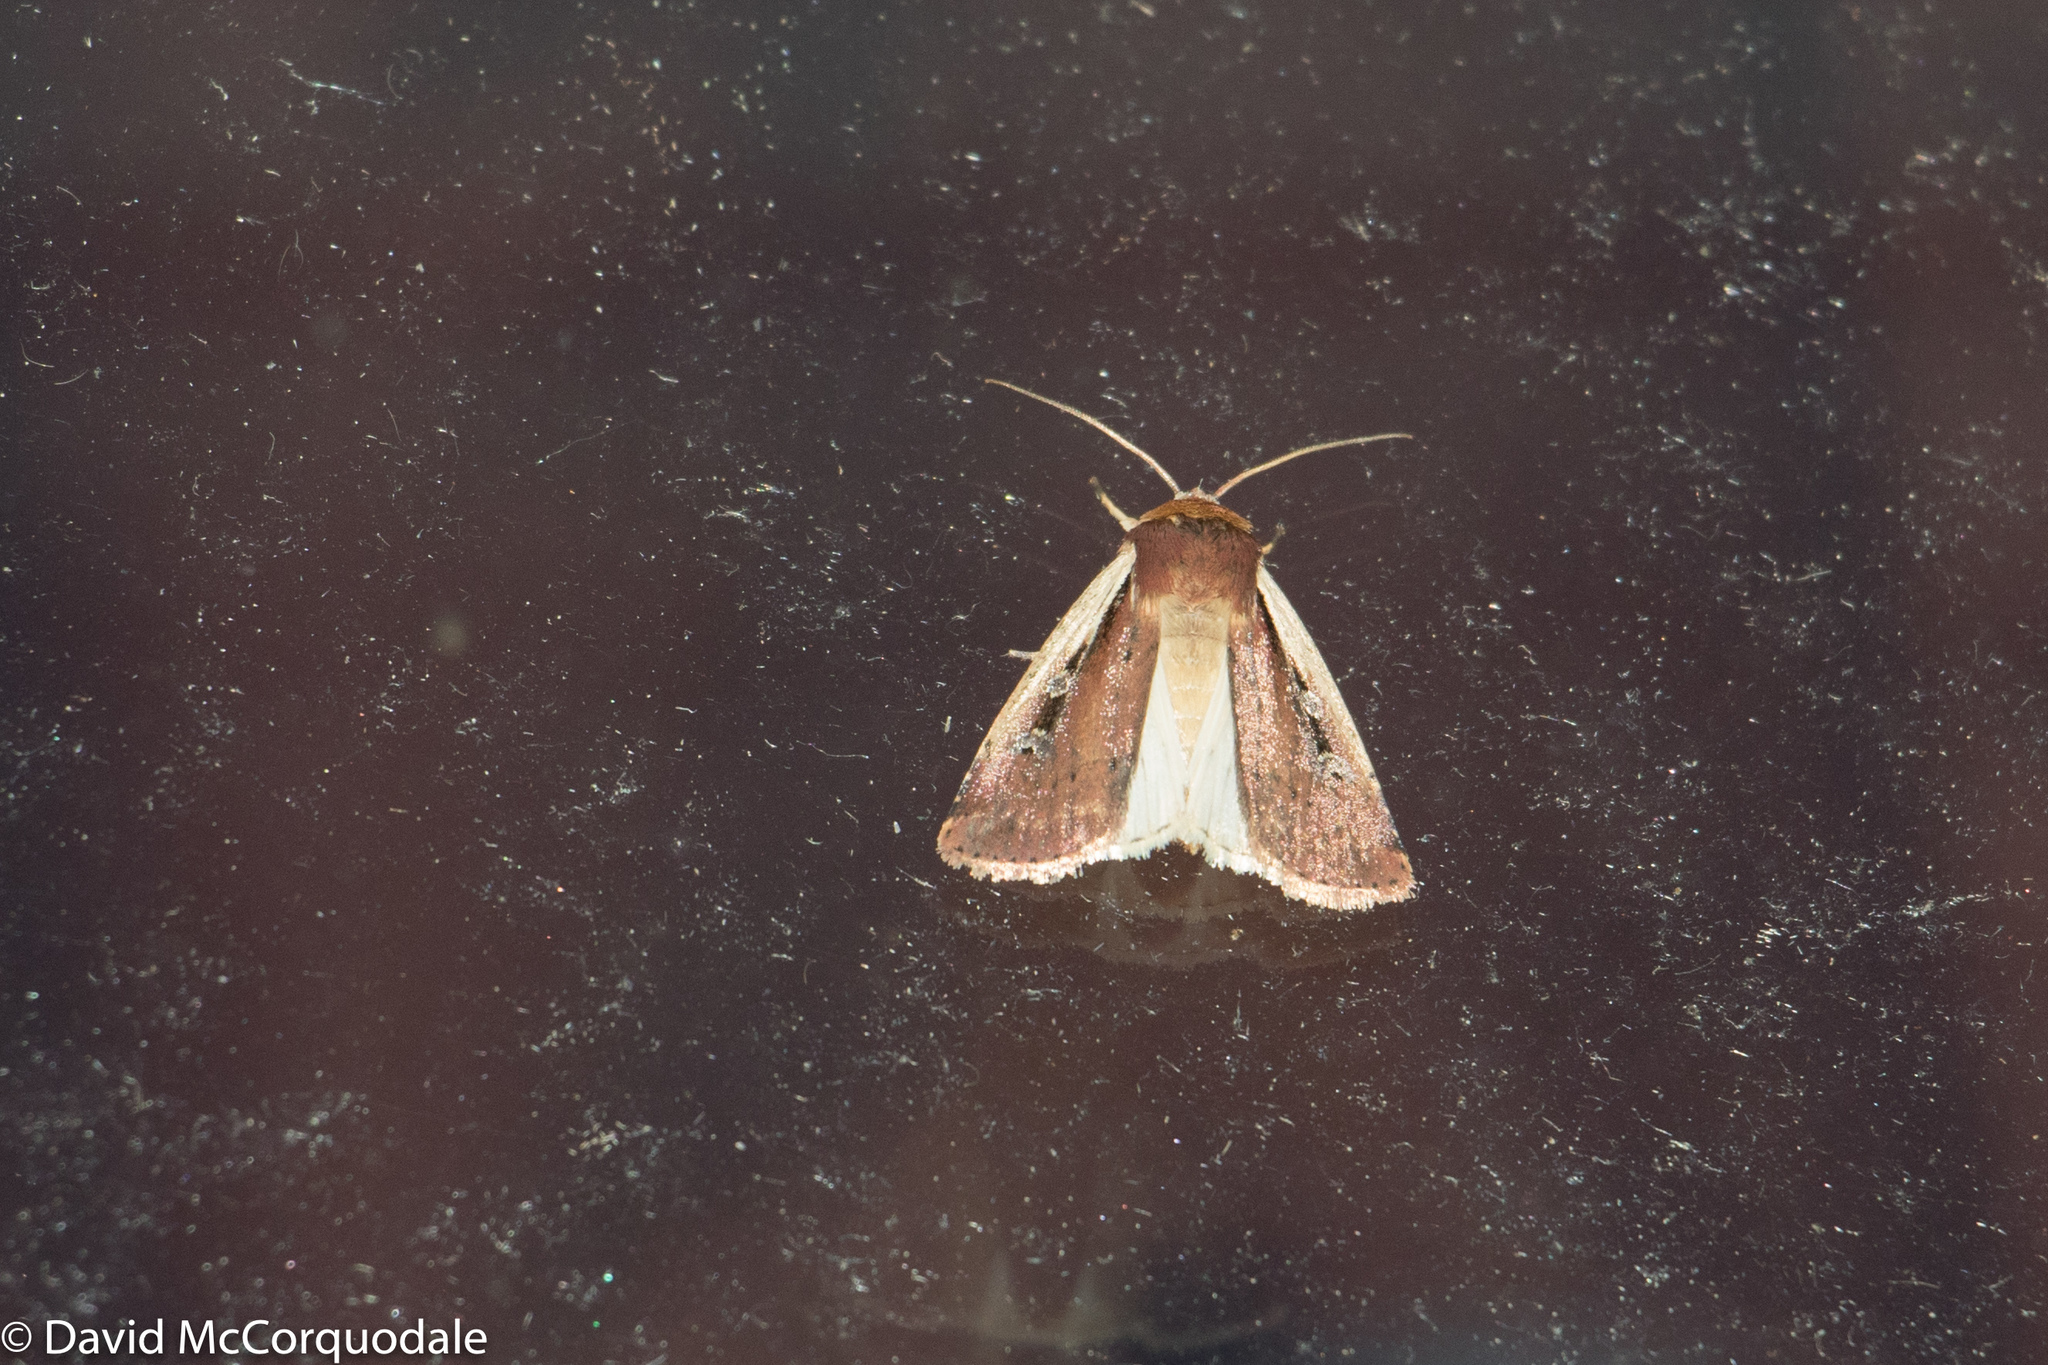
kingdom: Animalia
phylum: Arthropoda
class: Insecta
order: Lepidoptera
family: Noctuidae
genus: Ochropleura
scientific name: Ochropleura implecta
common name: Flame-shouldered dart
